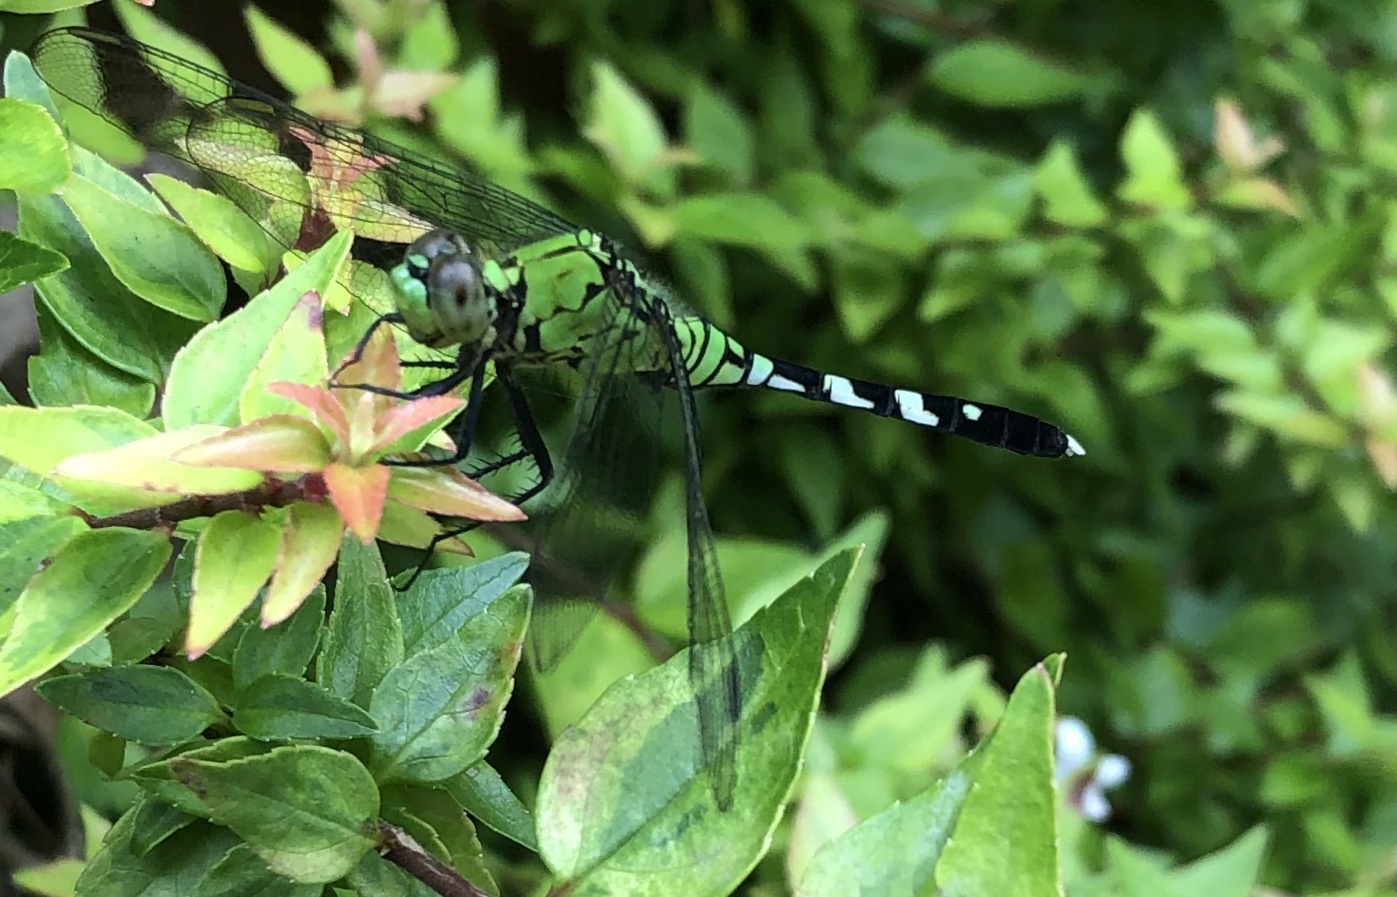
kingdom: Animalia
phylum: Arthropoda
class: Insecta
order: Odonata
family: Libellulidae
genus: Erythemis
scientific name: Erythemis simplicicollis
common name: Eastern pondhawk
